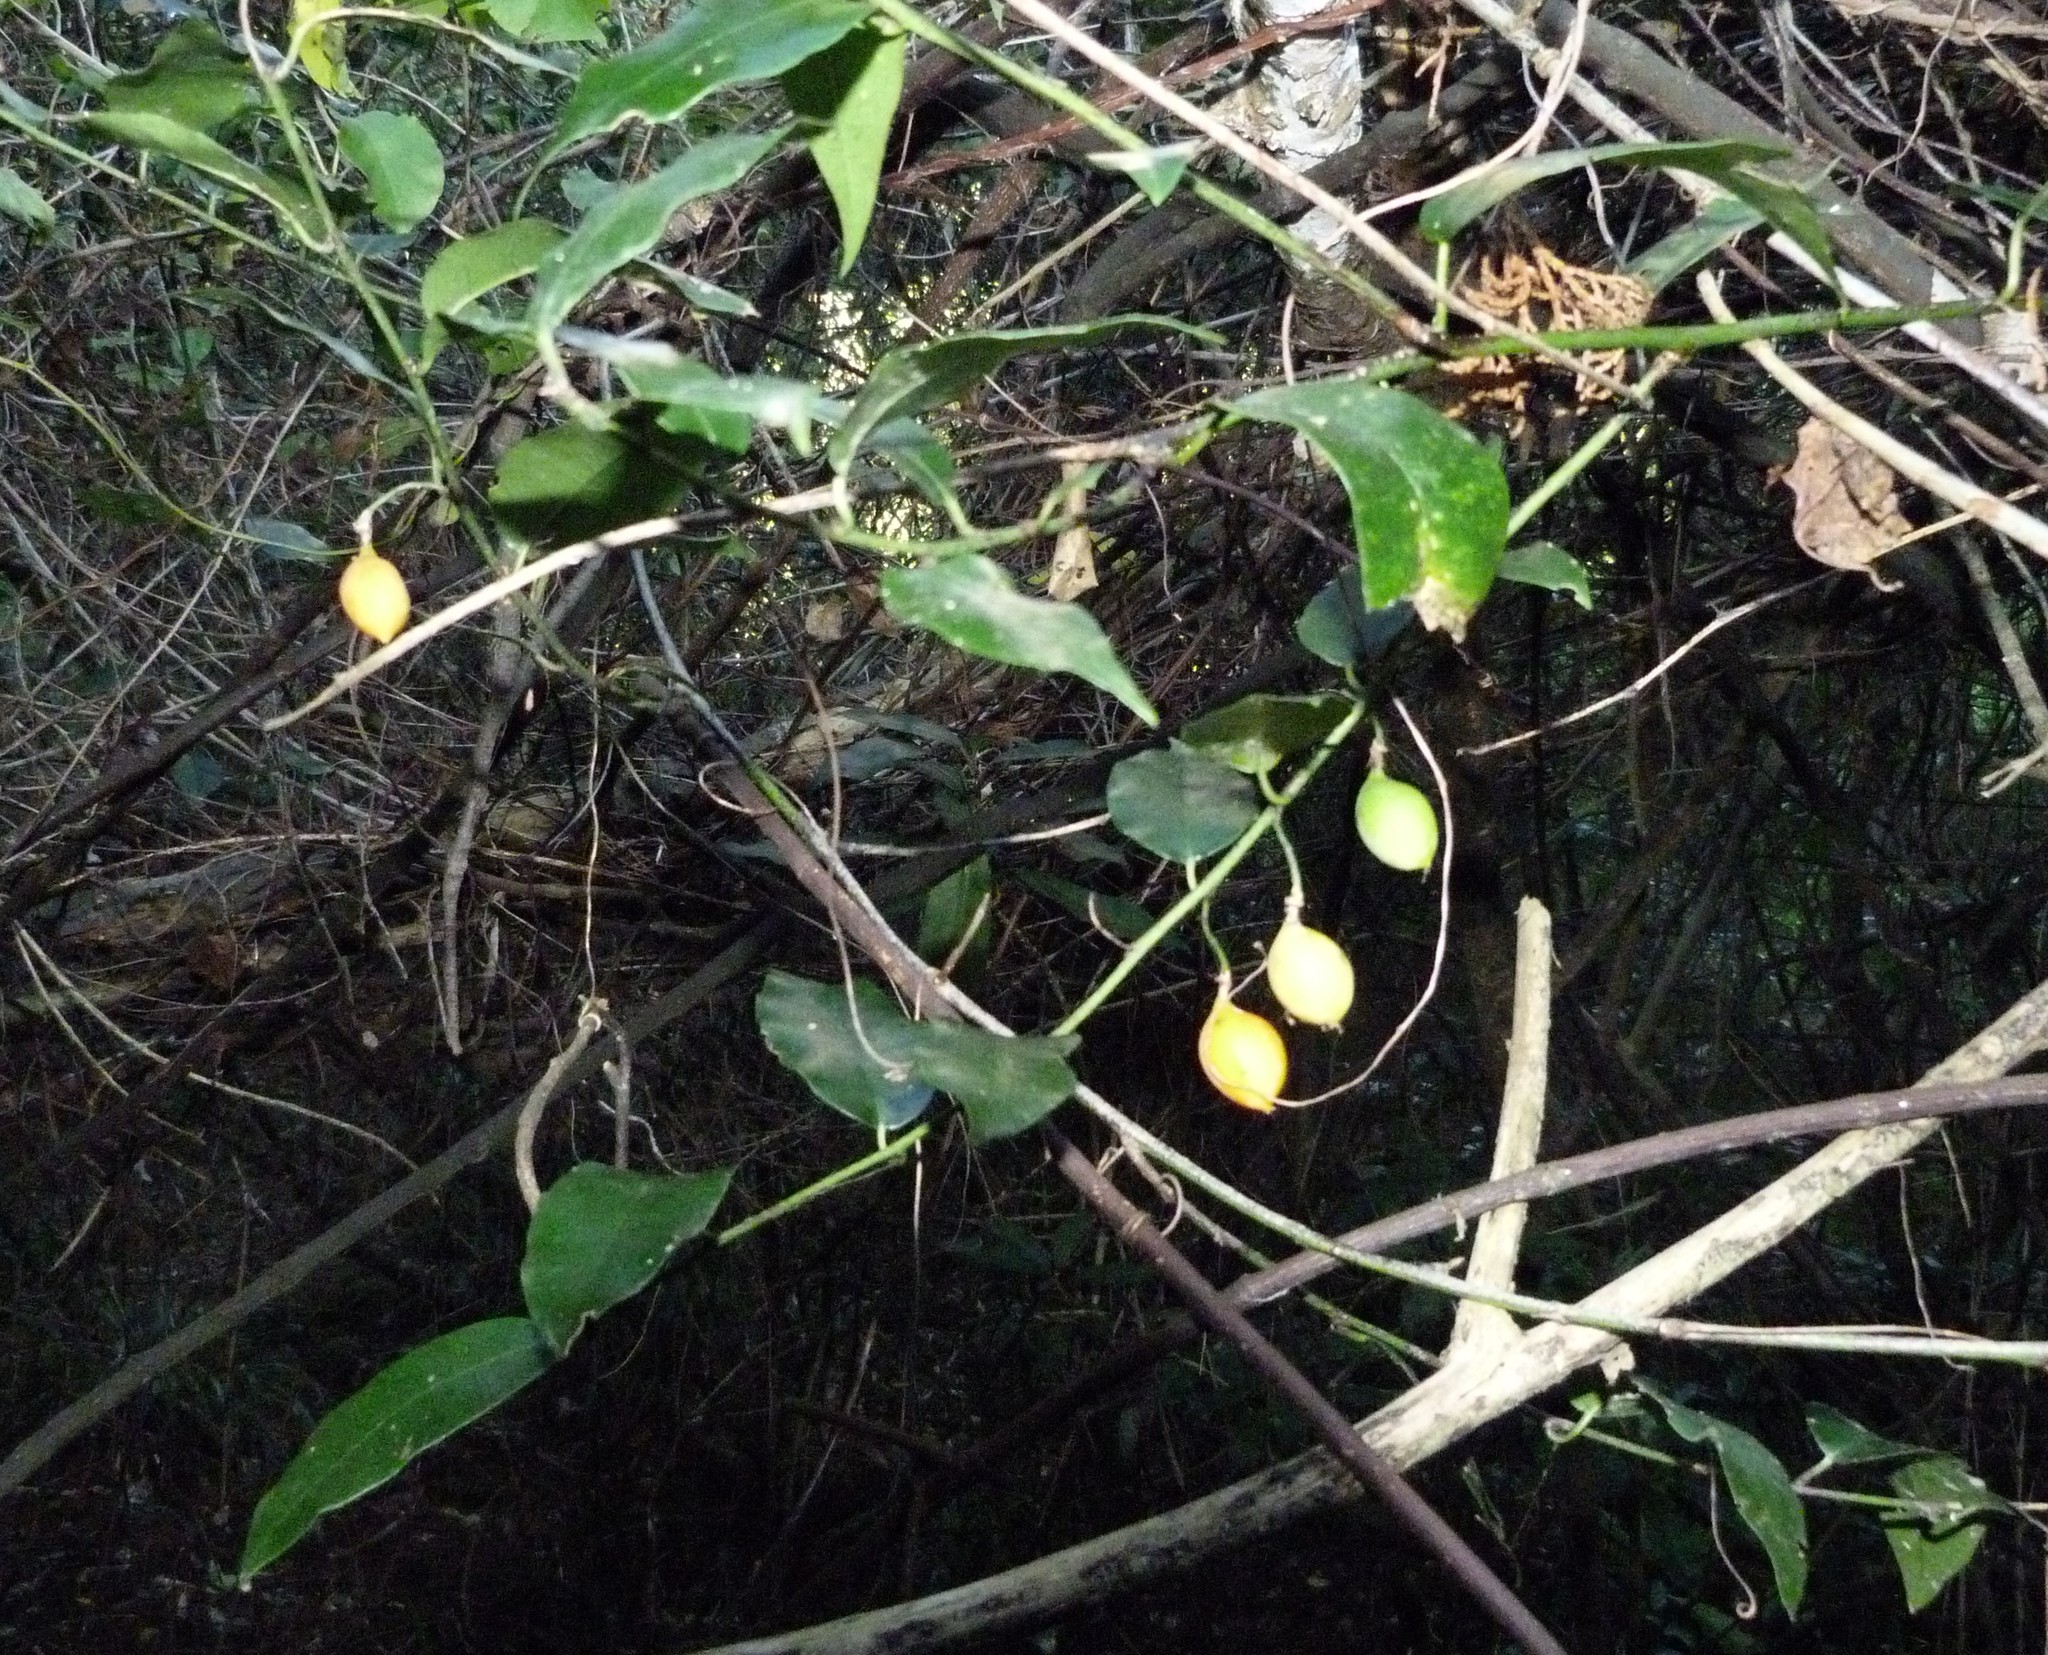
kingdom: Plantae
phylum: Tracheophyta
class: Magnoliopsida
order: Malpighiales
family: Passifloraceae
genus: Passiflora
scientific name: Passiflora tetrandra
